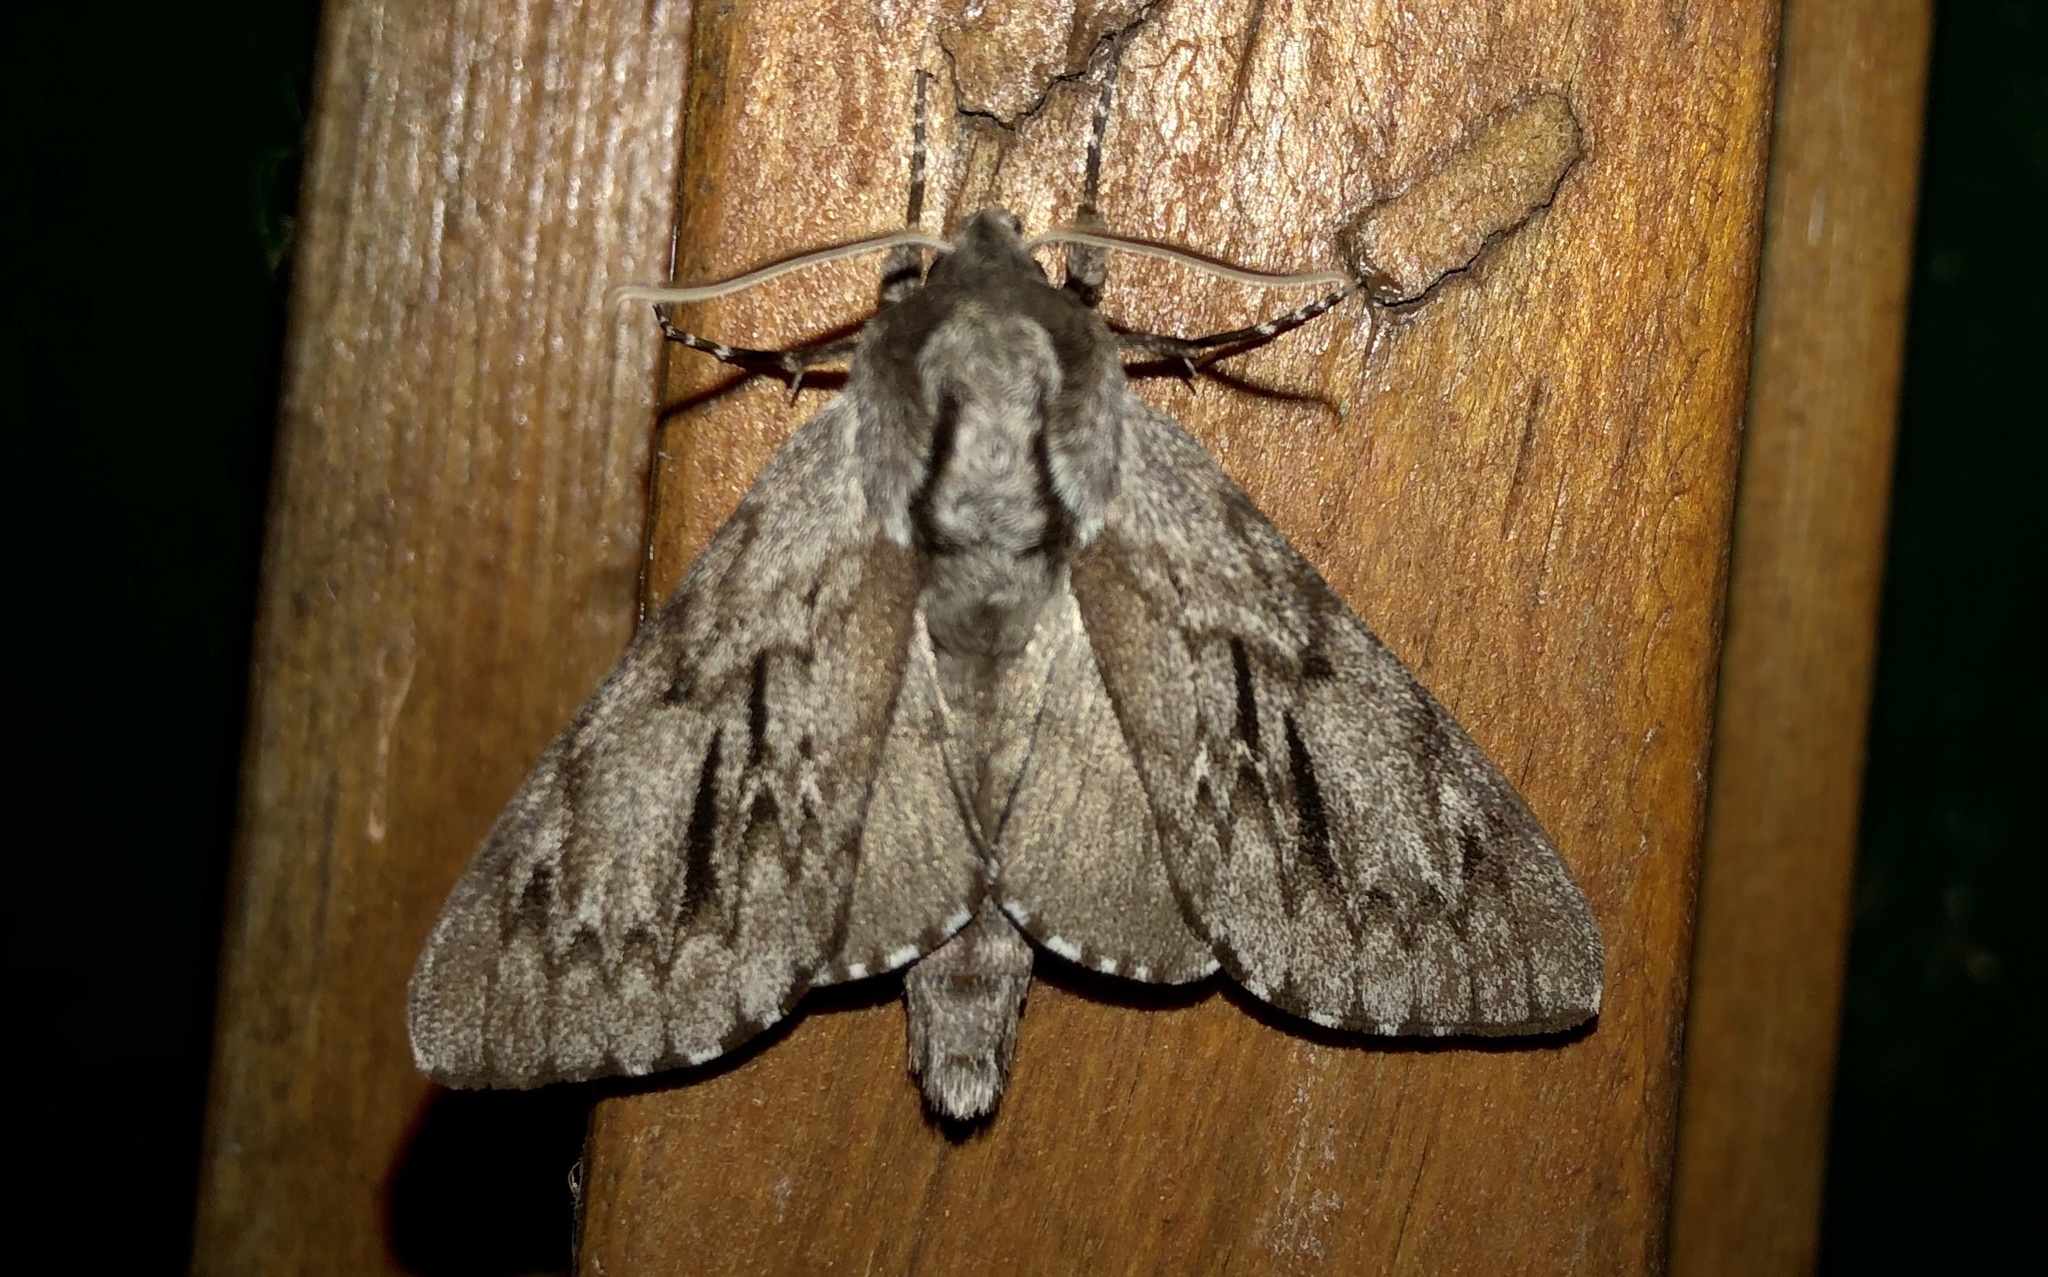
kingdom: Animalia
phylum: Arthropoda
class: Insecta
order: Lepidoptera
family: Sphingidae
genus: Lapara
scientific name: Lapara bombycoides
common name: Northern pine sphinx
